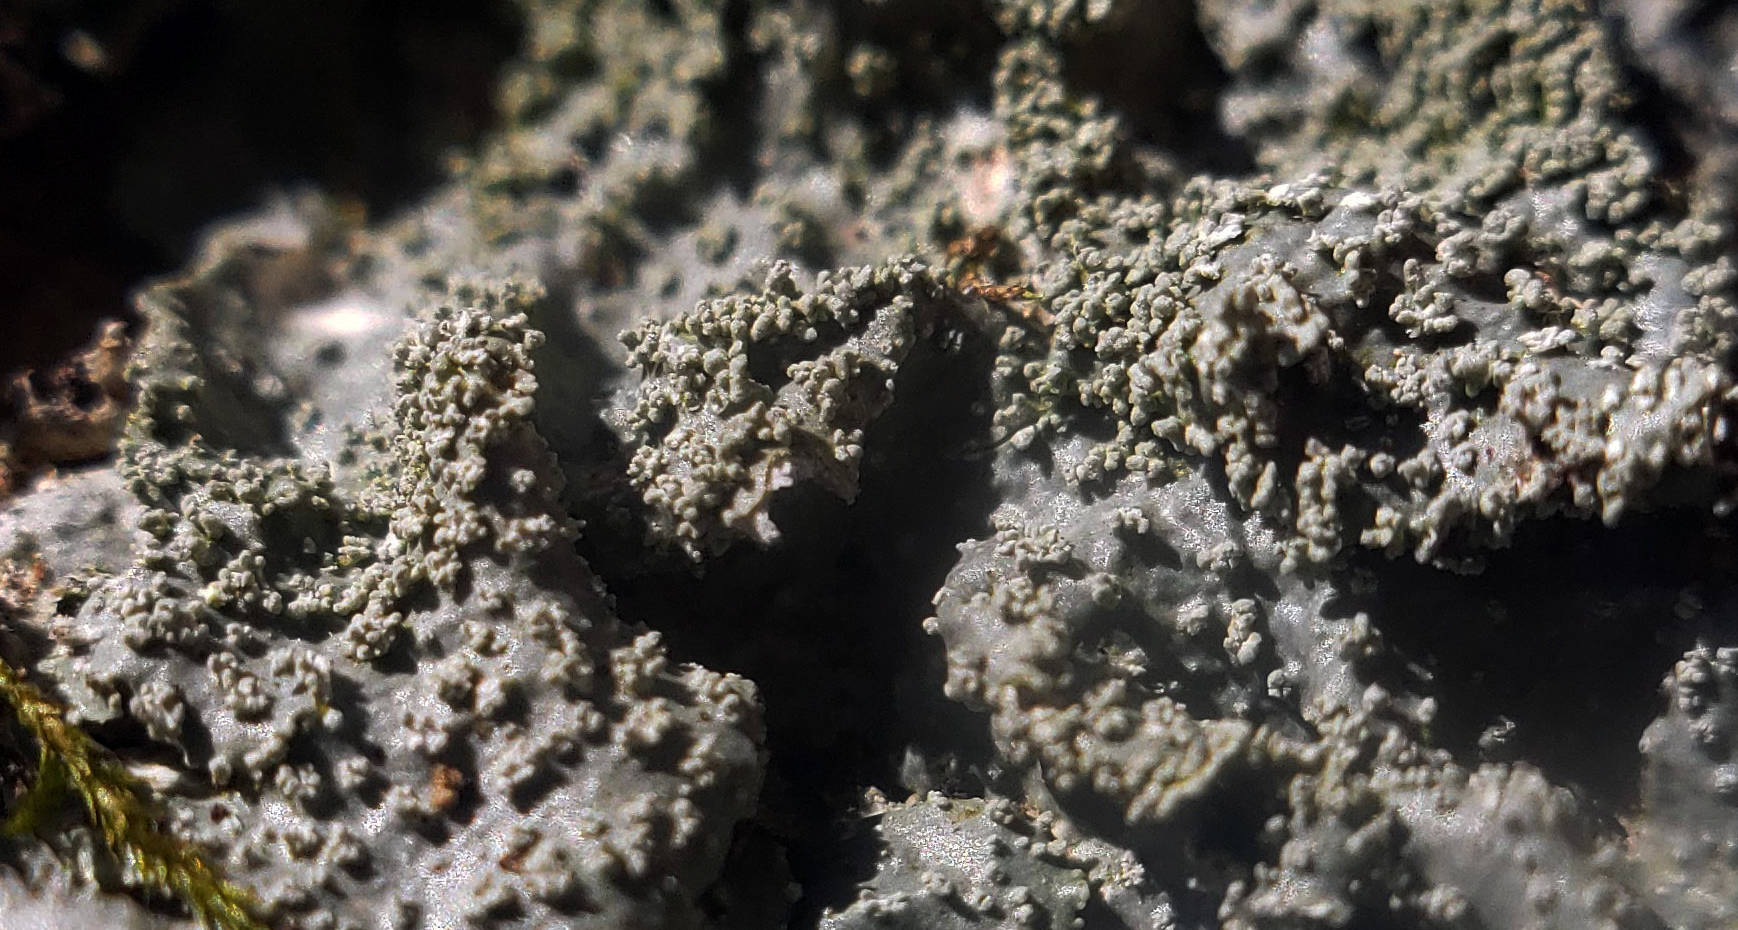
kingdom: Fungi
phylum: Ascomycota
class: Lecanoromycetes
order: Lecanorales
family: Parmeliaceae
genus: Punctelia
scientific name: Punctelia missouriensis
